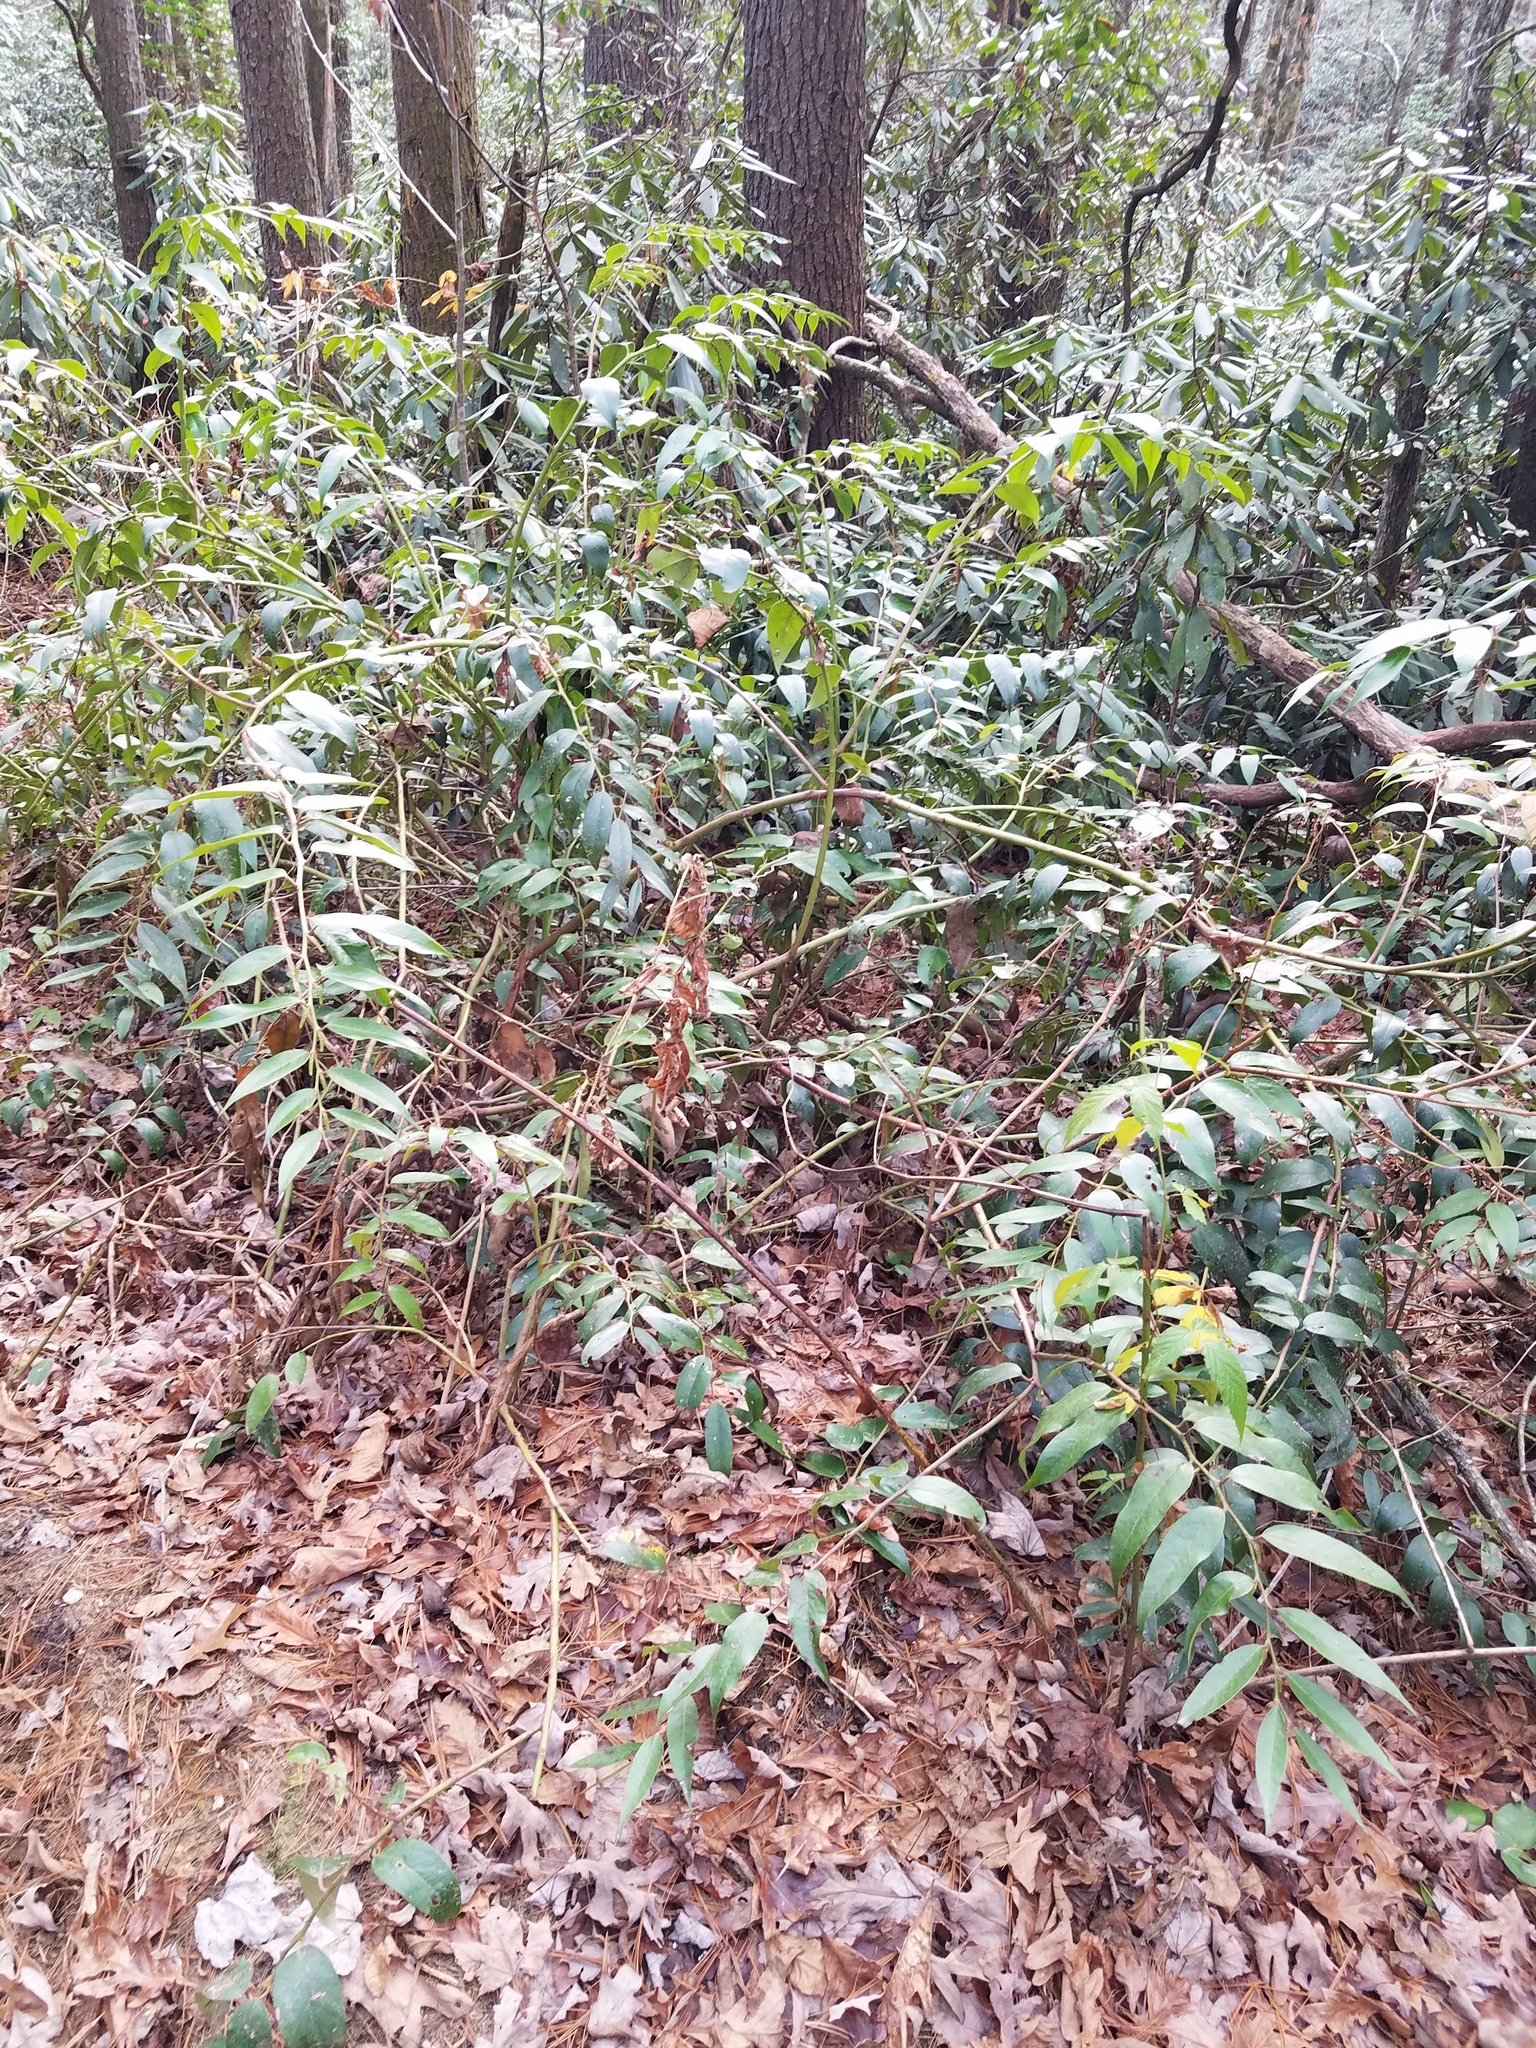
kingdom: Plantae
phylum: Tracheophyta
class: Magnoliopsida
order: Ericales
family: Ericaceae
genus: Leucothoe
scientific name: Leucothoe fontanesiana
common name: Fetterbush
